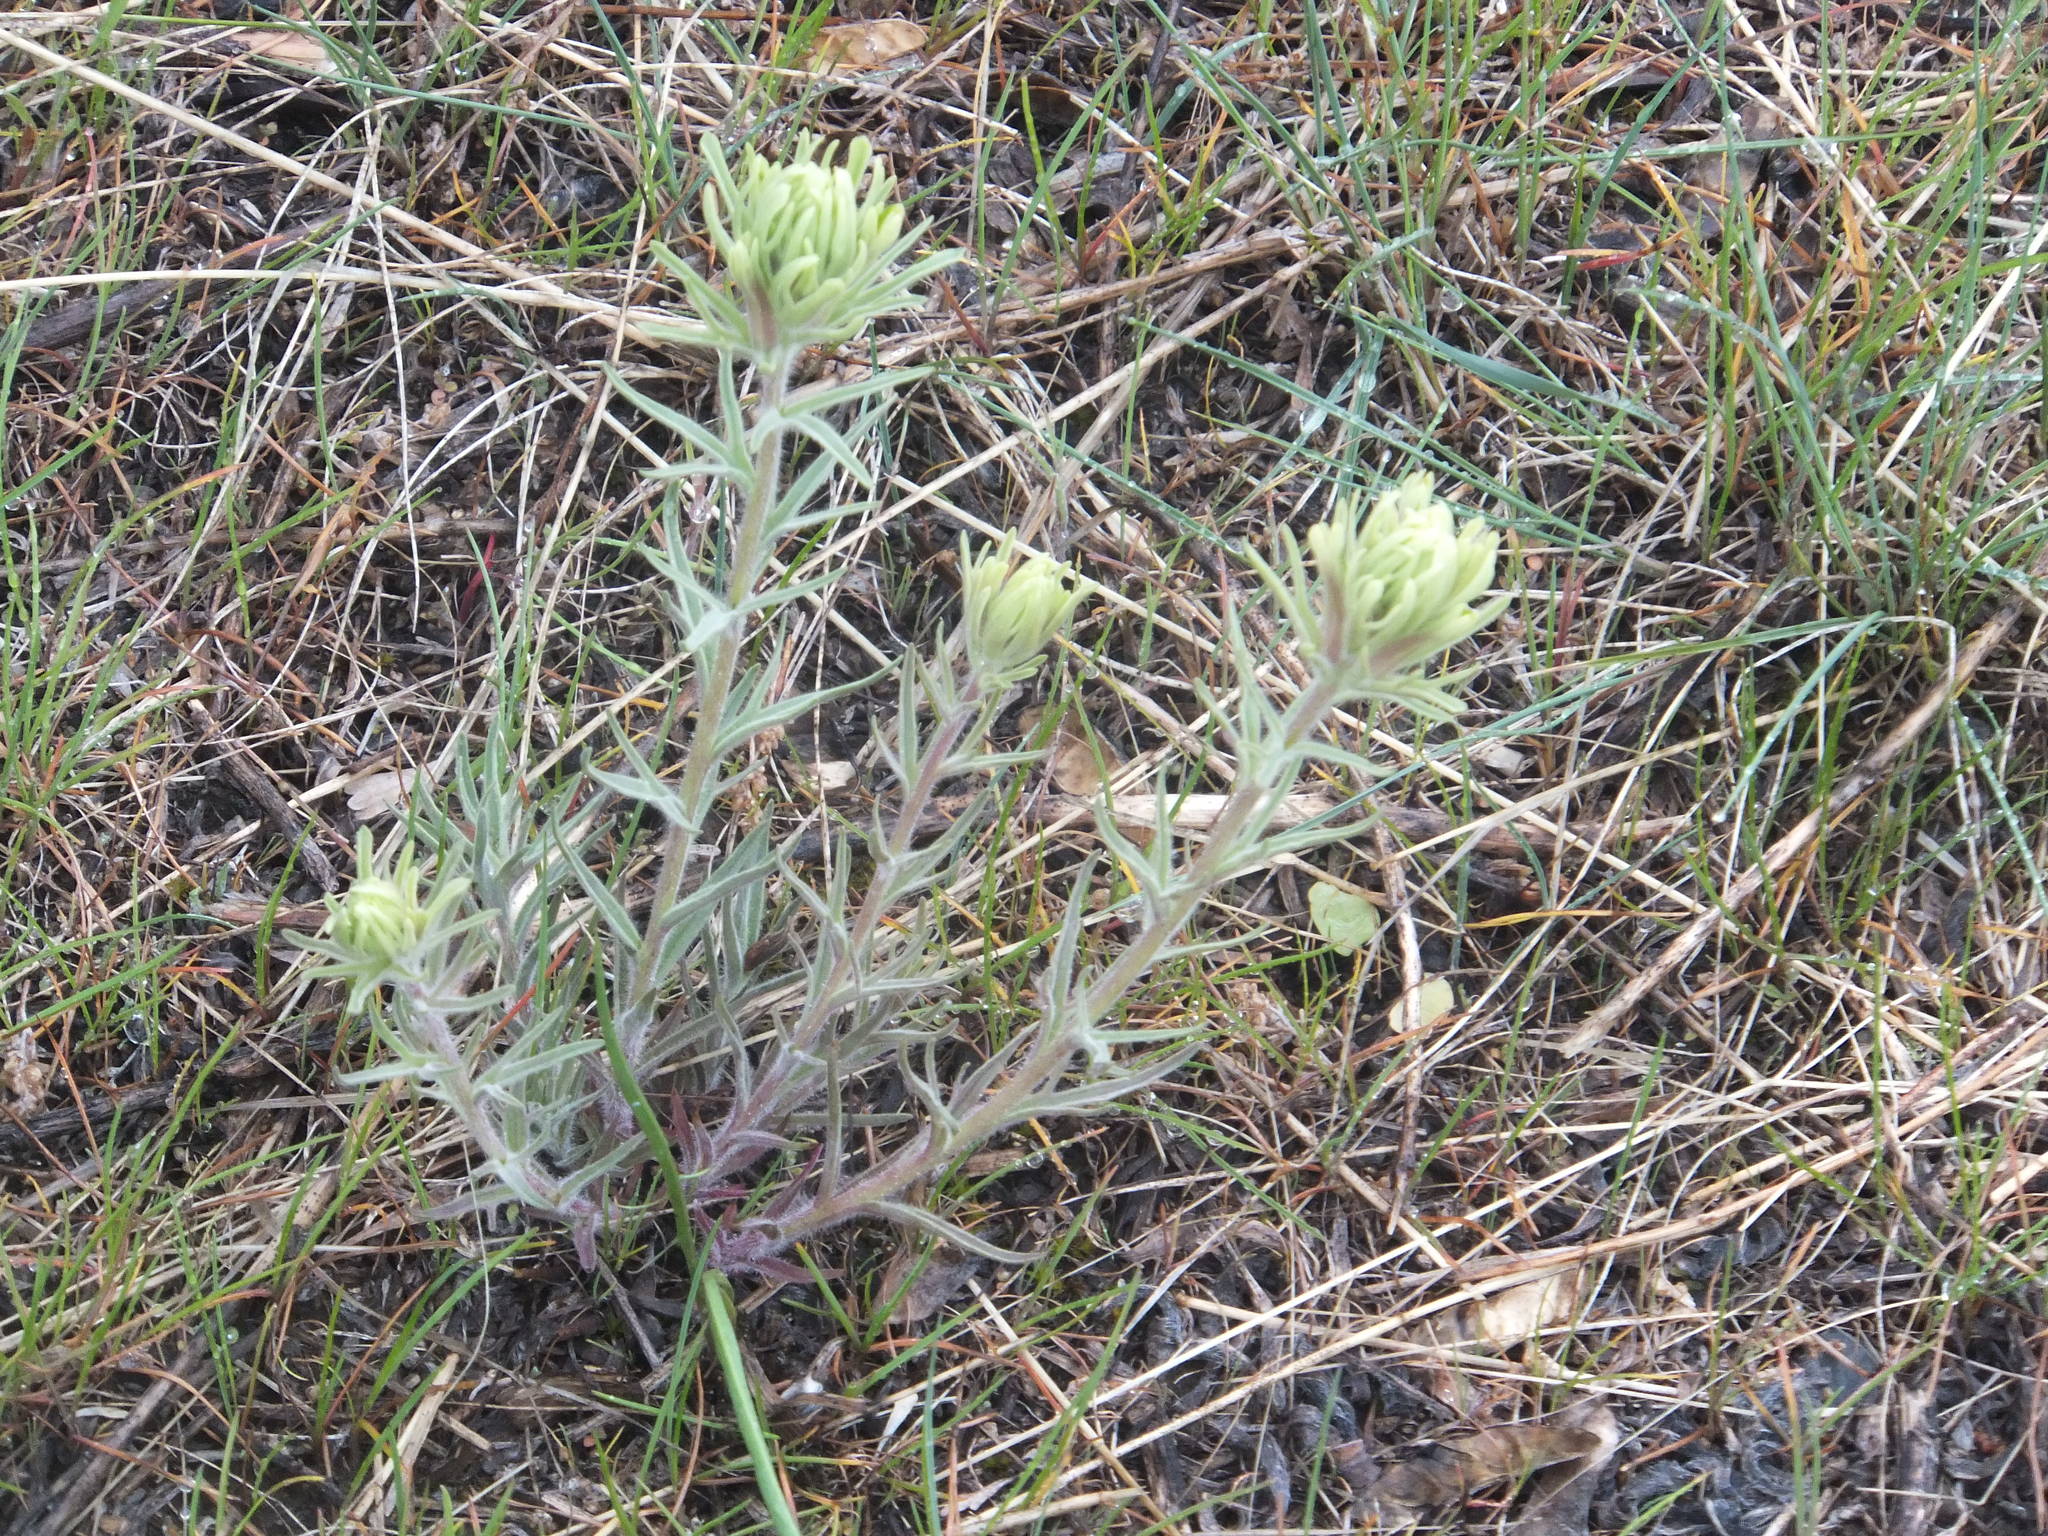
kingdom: Plantae
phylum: Tracheophyta
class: Magnoliopsida
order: Lamiales
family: Orobanchaceae
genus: Castilleja
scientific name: Castilleja thompsonii
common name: Thompson's paintbrush
